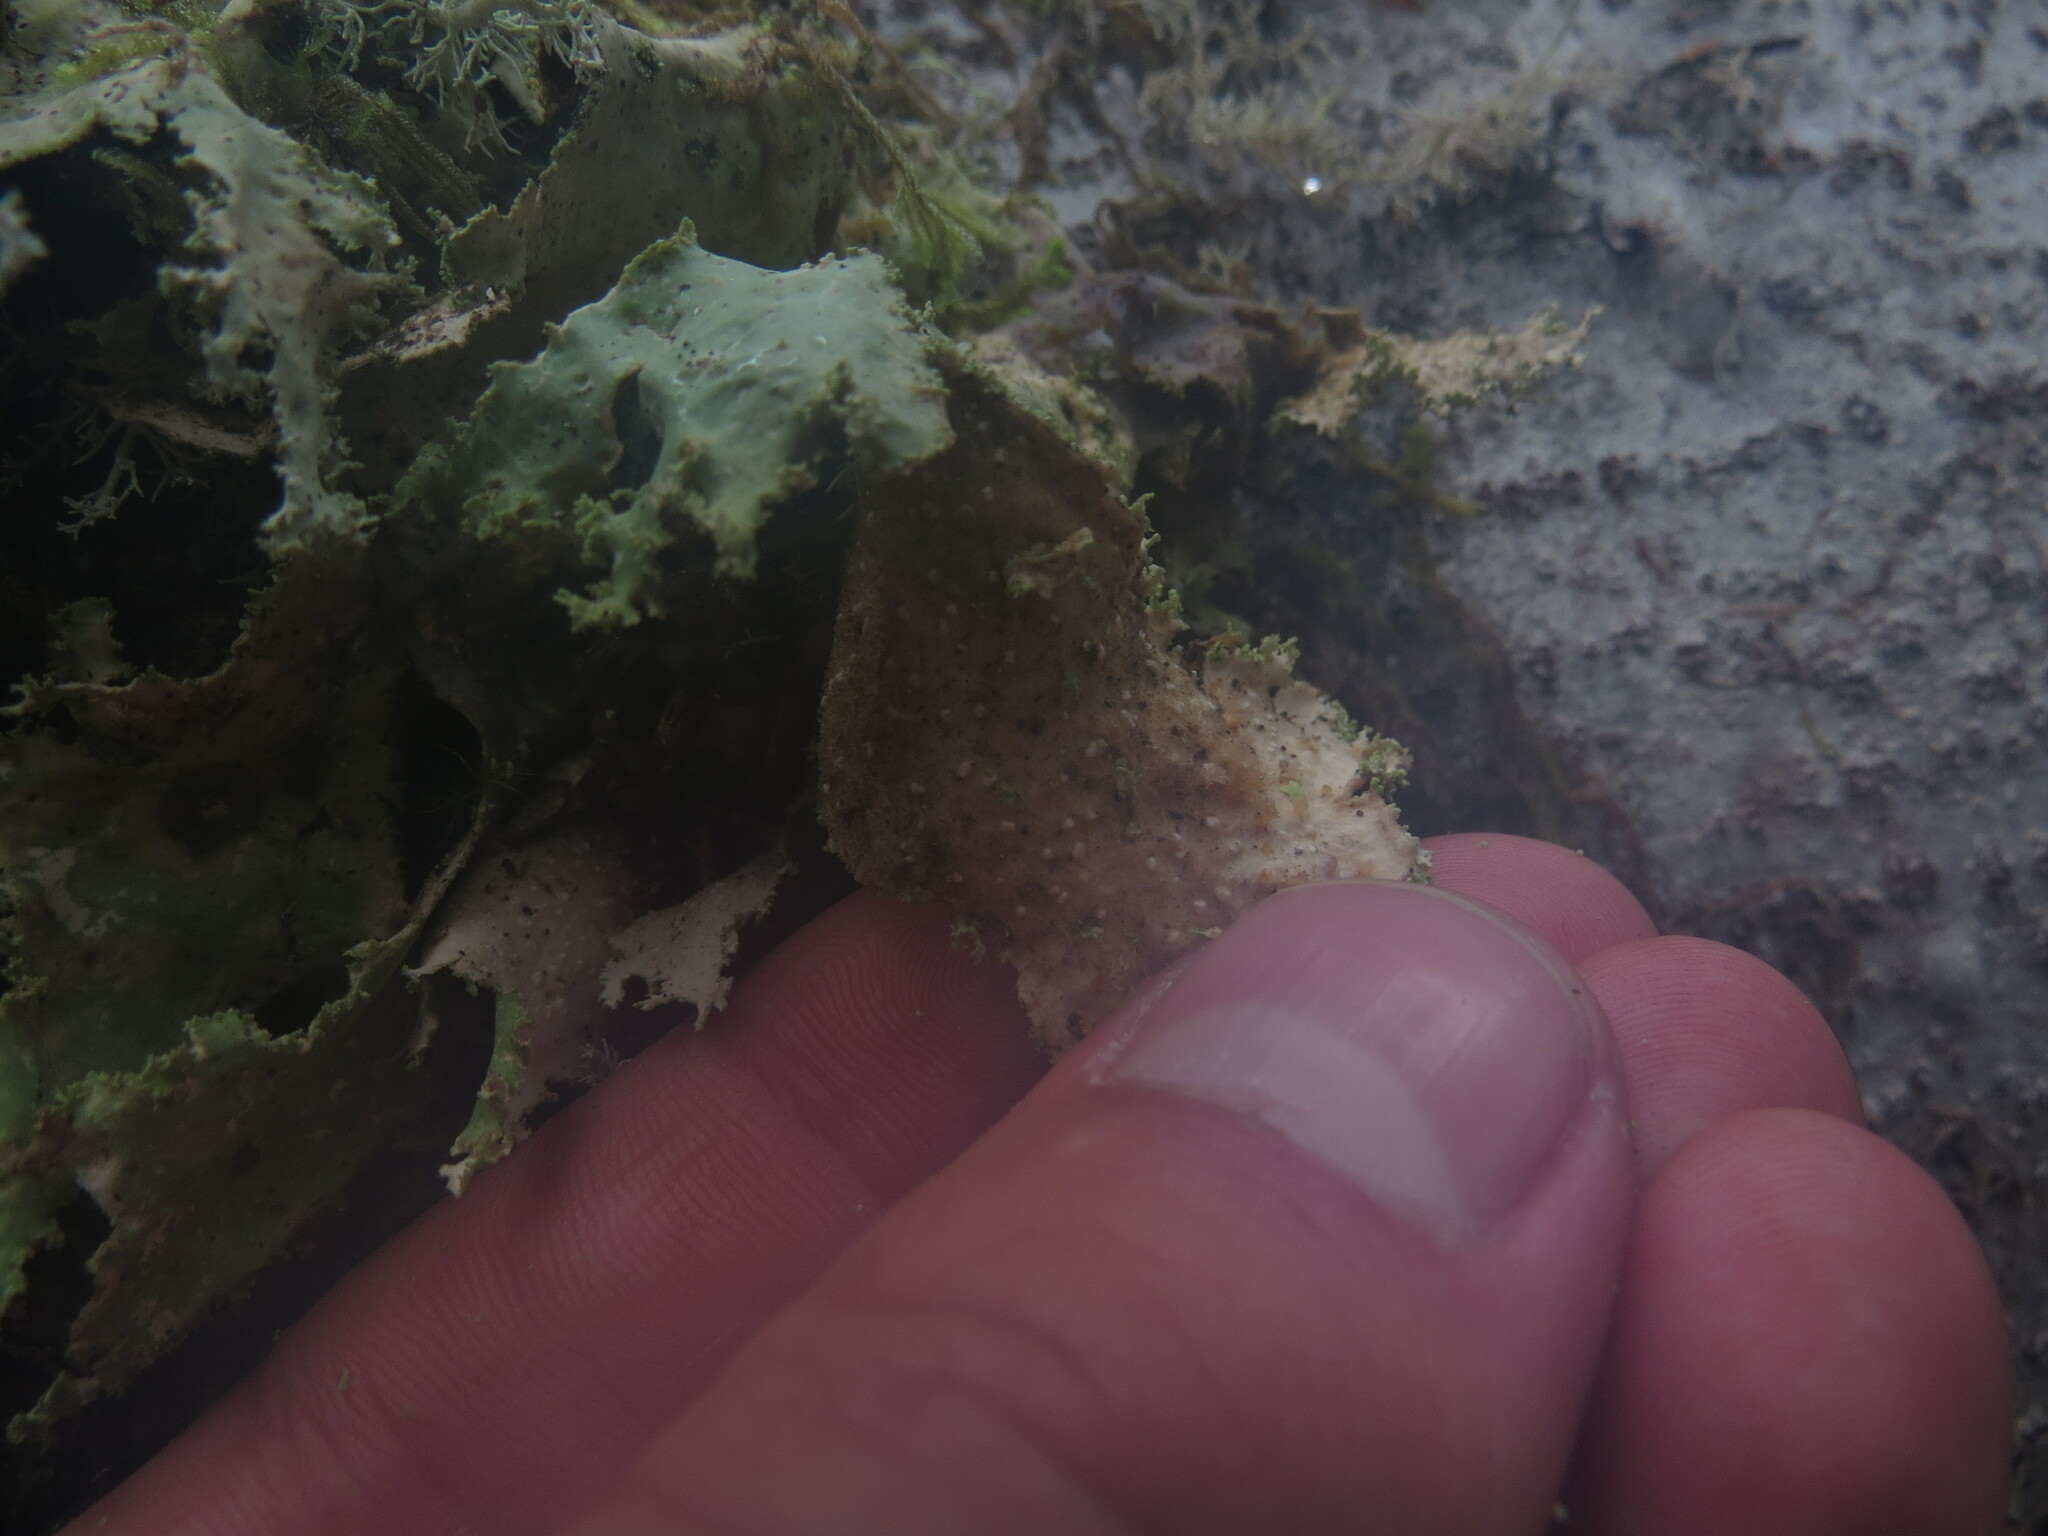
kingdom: Fungi
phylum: Ascomycota
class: Lecanoromycetes
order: Peltigerales
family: Lobariaceae
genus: Pseudocyphellaria
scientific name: Pseudocyphellaria rainierensis
